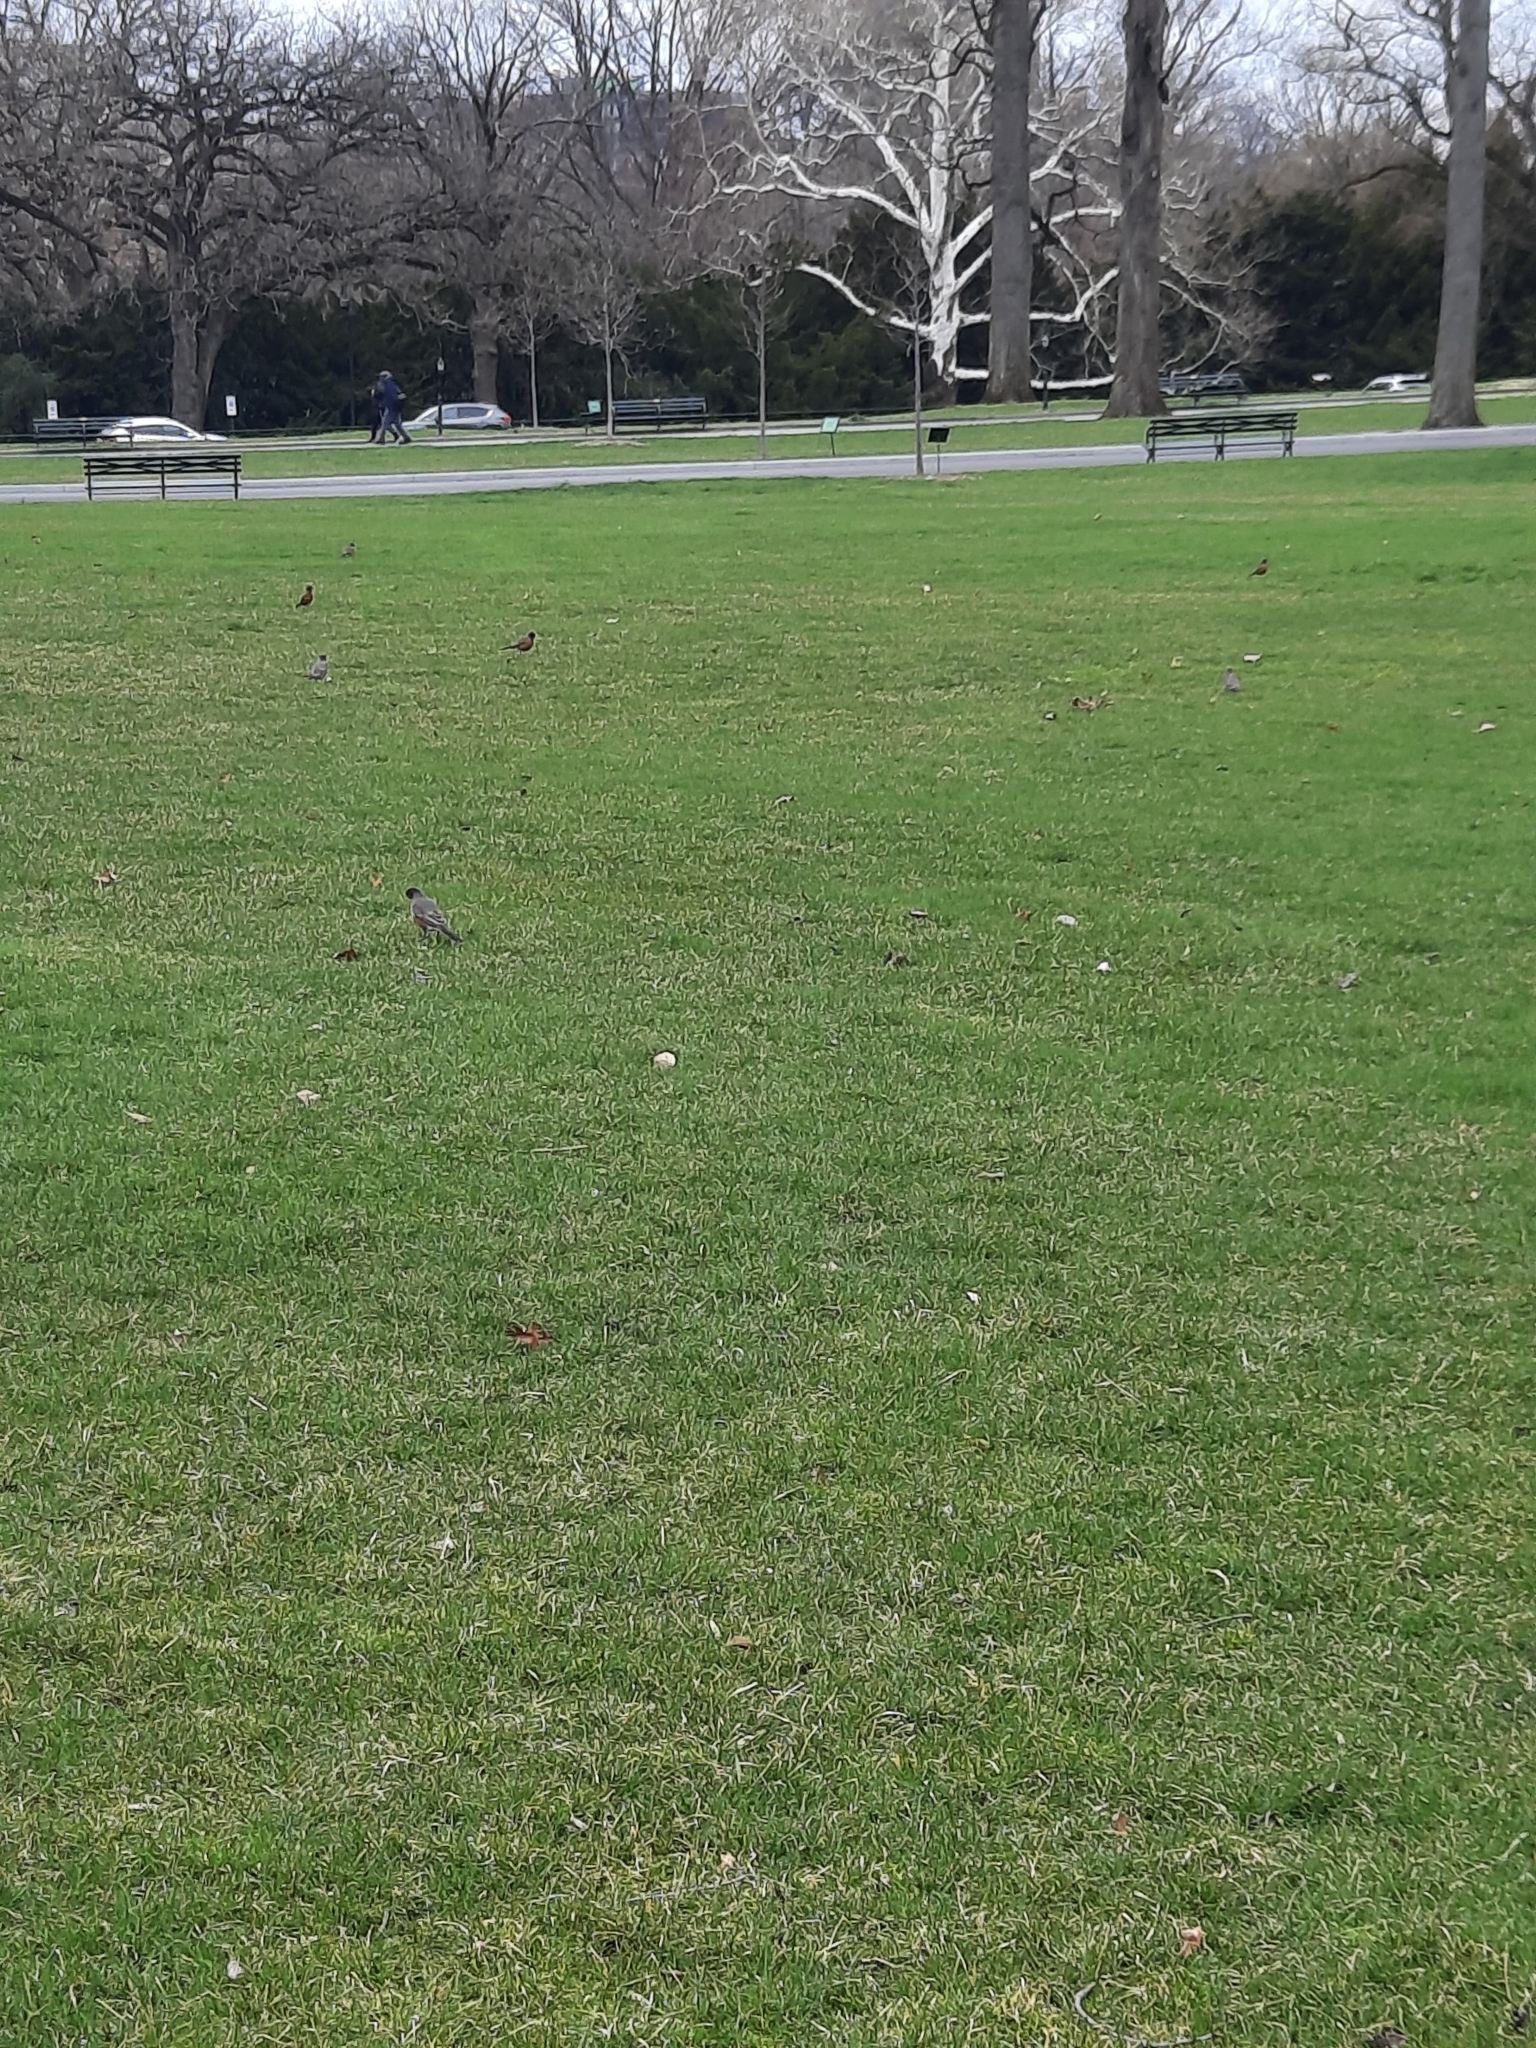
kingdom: Animalia
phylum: Chordata
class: Aves
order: Passeriformes
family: Turdidae
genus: Turdus
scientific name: Turdus migratorius
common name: American robin
